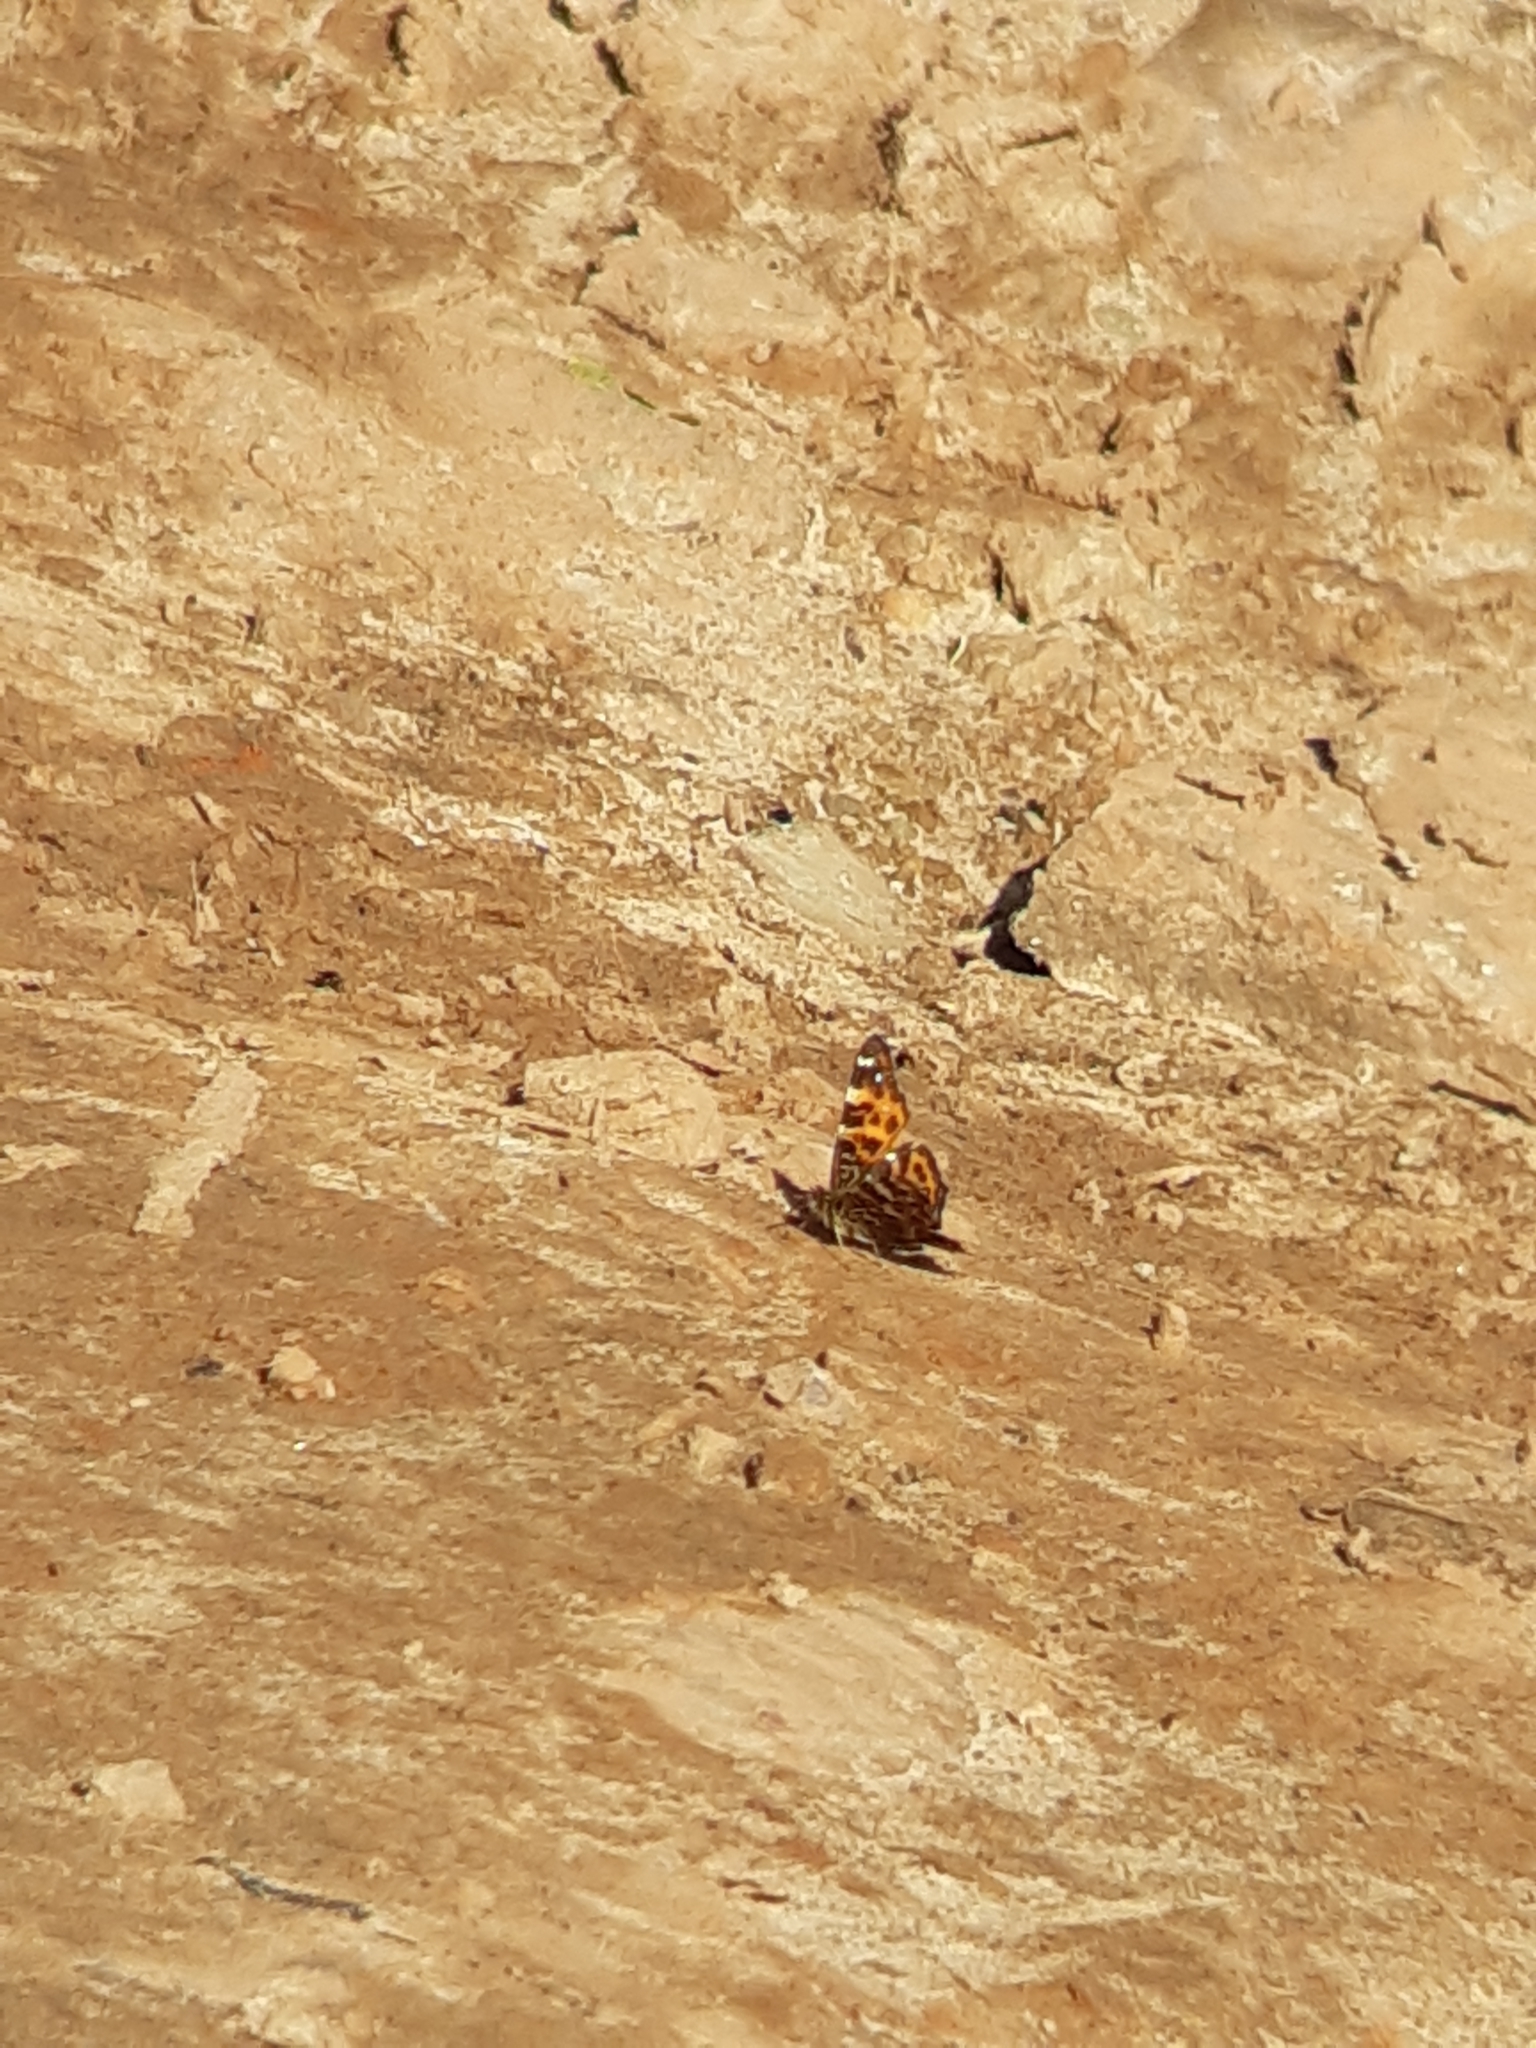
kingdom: Animalia
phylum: Arthropoda
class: Insecta
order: Lepidoptera
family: Nymphalidae
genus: Araschnia
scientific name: Araschnia levana
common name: Map butterfly
